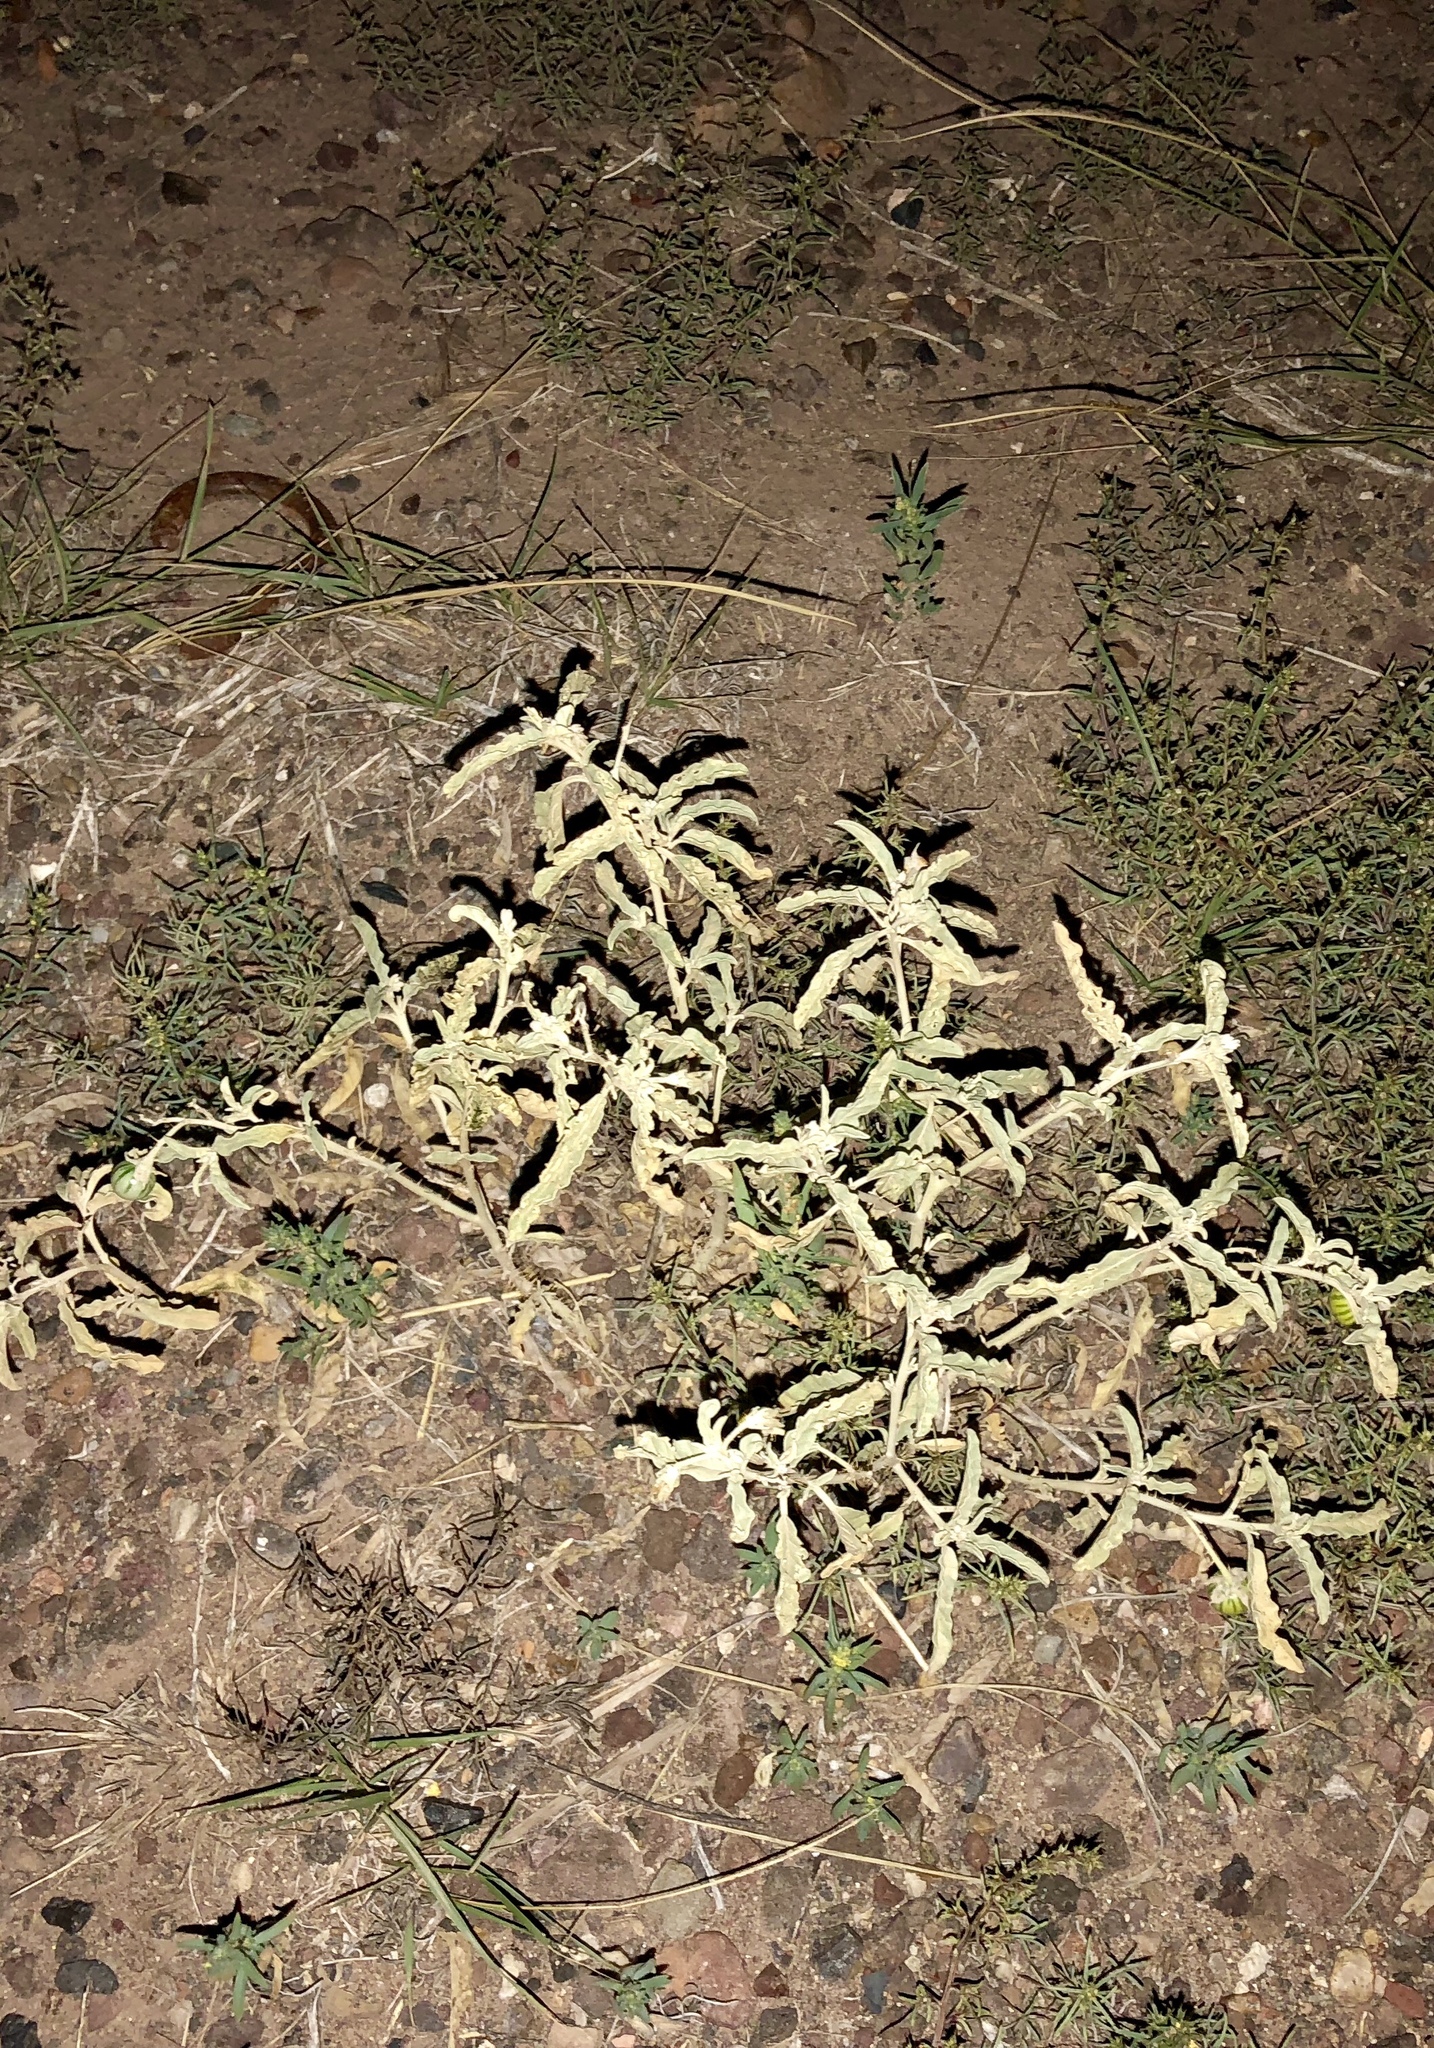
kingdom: Plantae
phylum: Tracheophyta
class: Magnoliopsida
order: Solanales
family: Solanaceae
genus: Solanum
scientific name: Solanum elaeagnifolium
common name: Silverleaf nightshade
